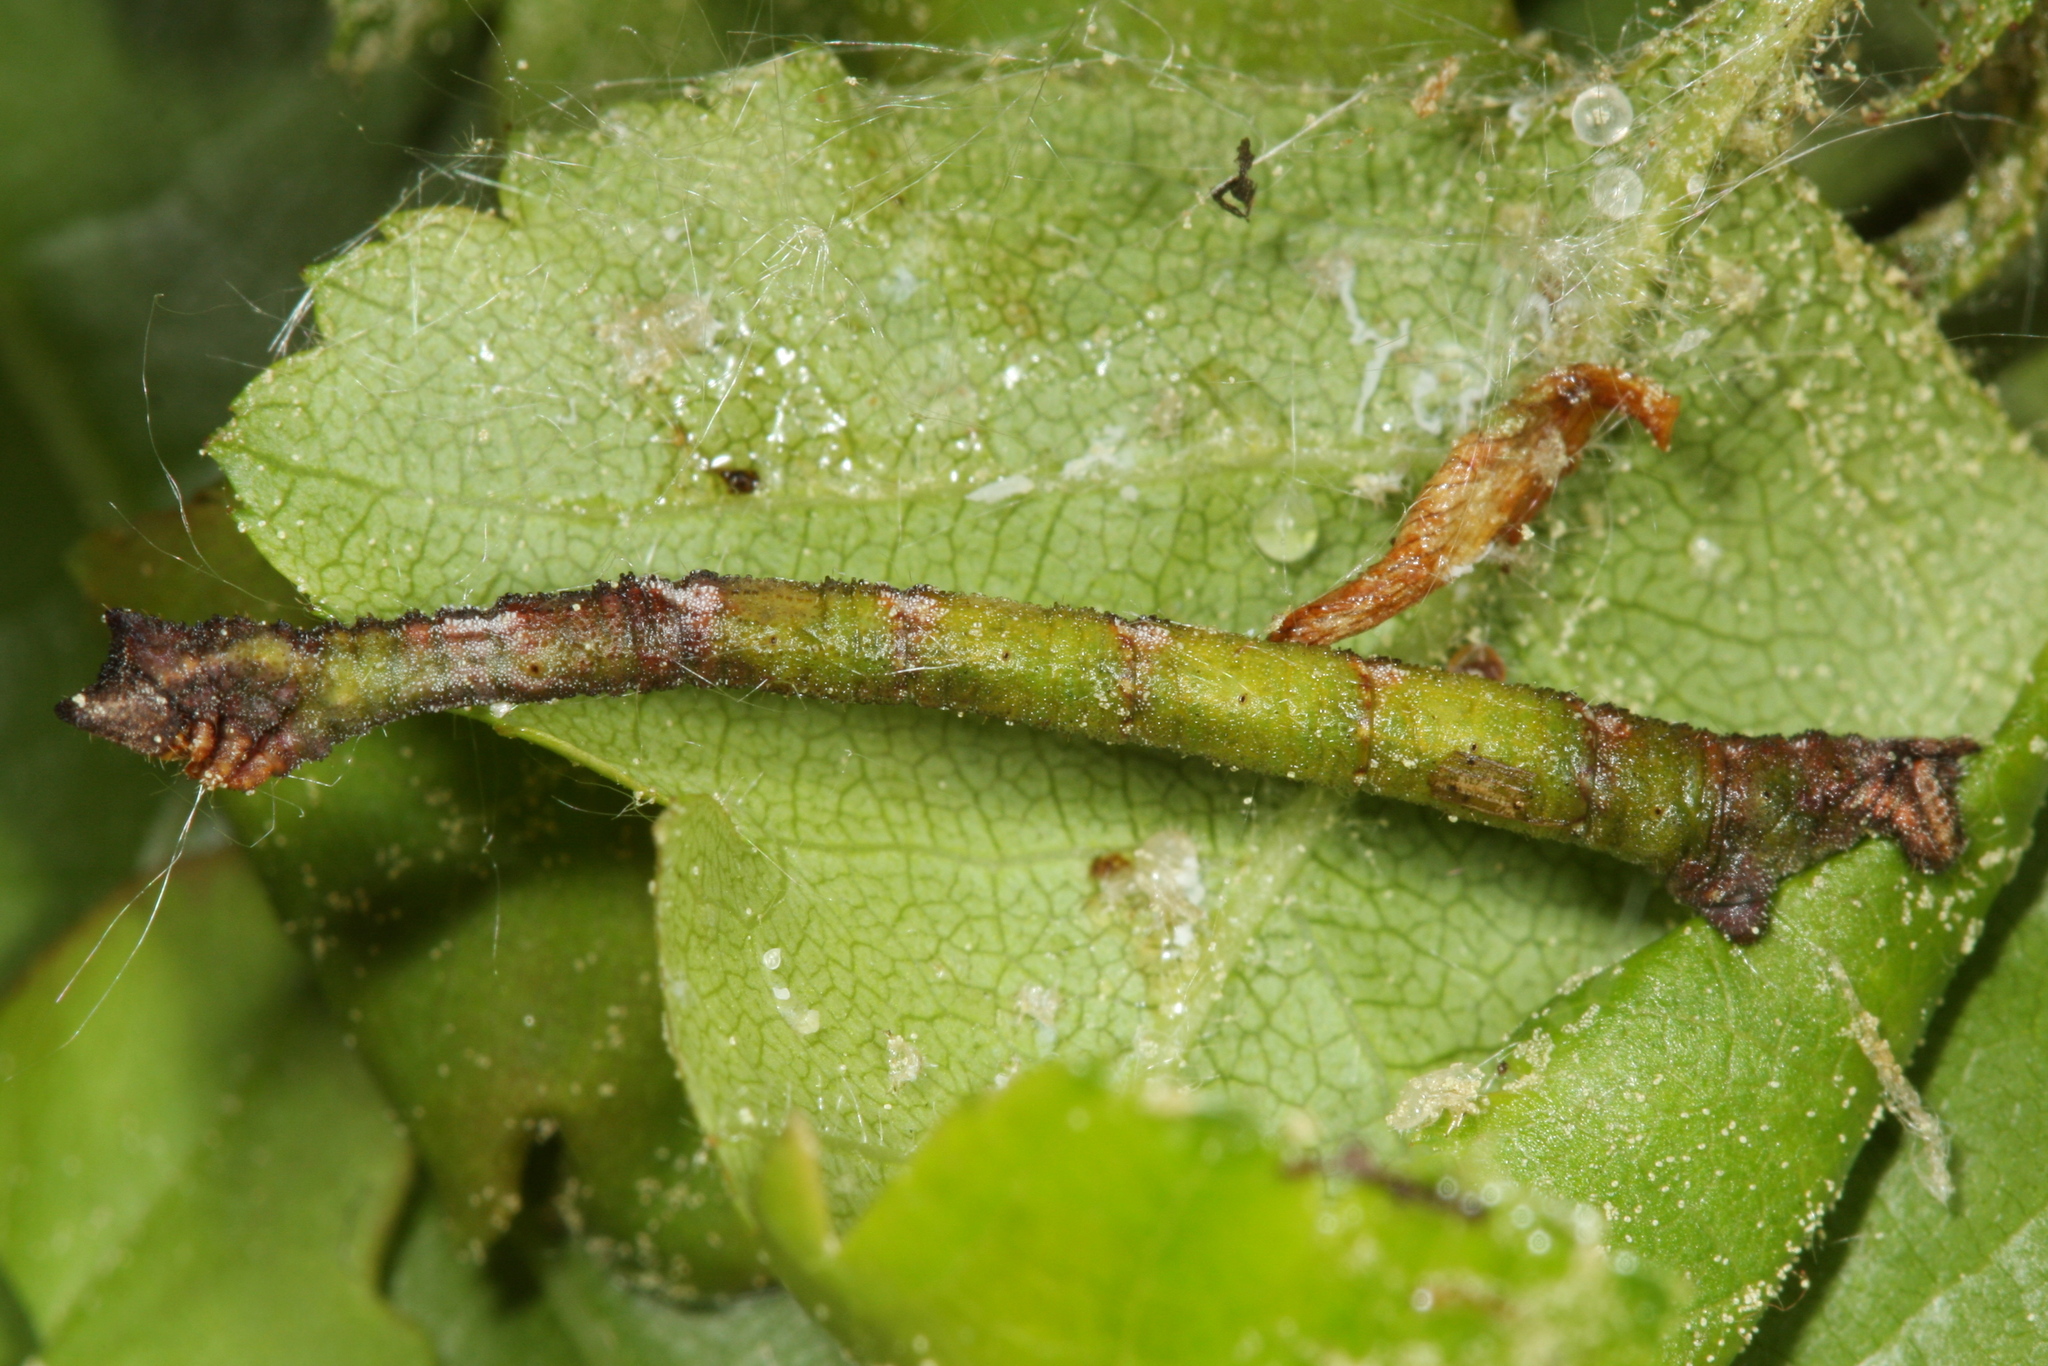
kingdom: Animalia
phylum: Arthropoda
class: Insecta
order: Lepidoptera
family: Geometridae
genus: Hemithea
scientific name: Hemithea aestivaria
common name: Common emerald
